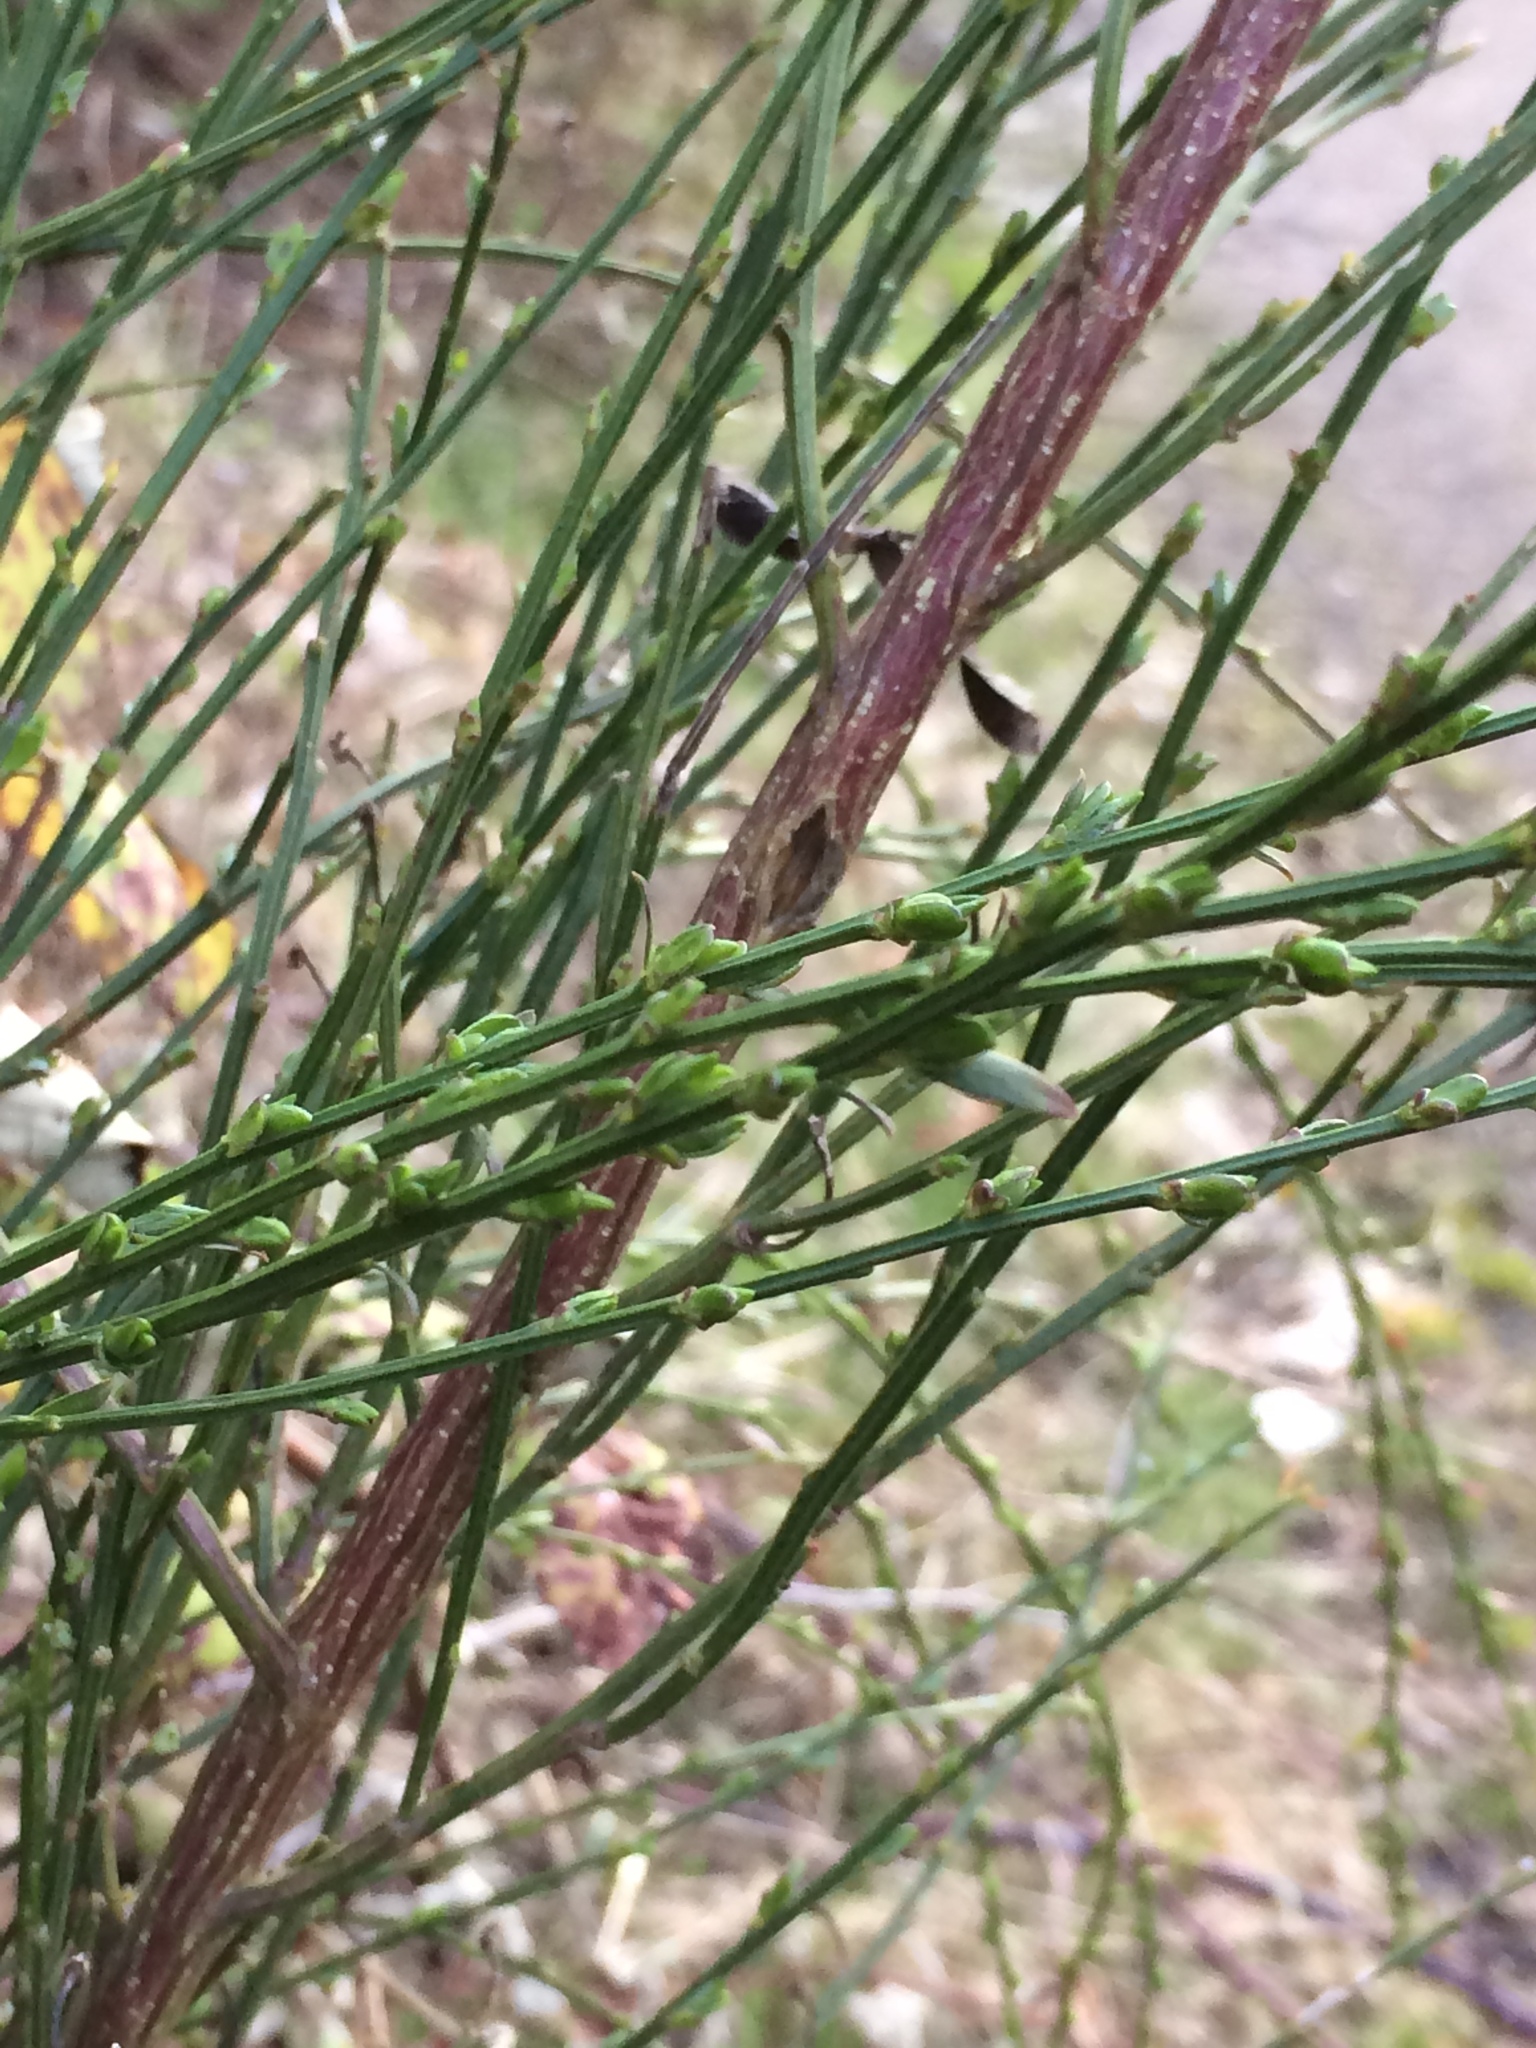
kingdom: Plantae
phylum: Tracheophyta
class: Magnoliopsida
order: Fabales
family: Fabaceae
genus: Cytisus
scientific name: Cytisus scoparius
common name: Scotch broom
